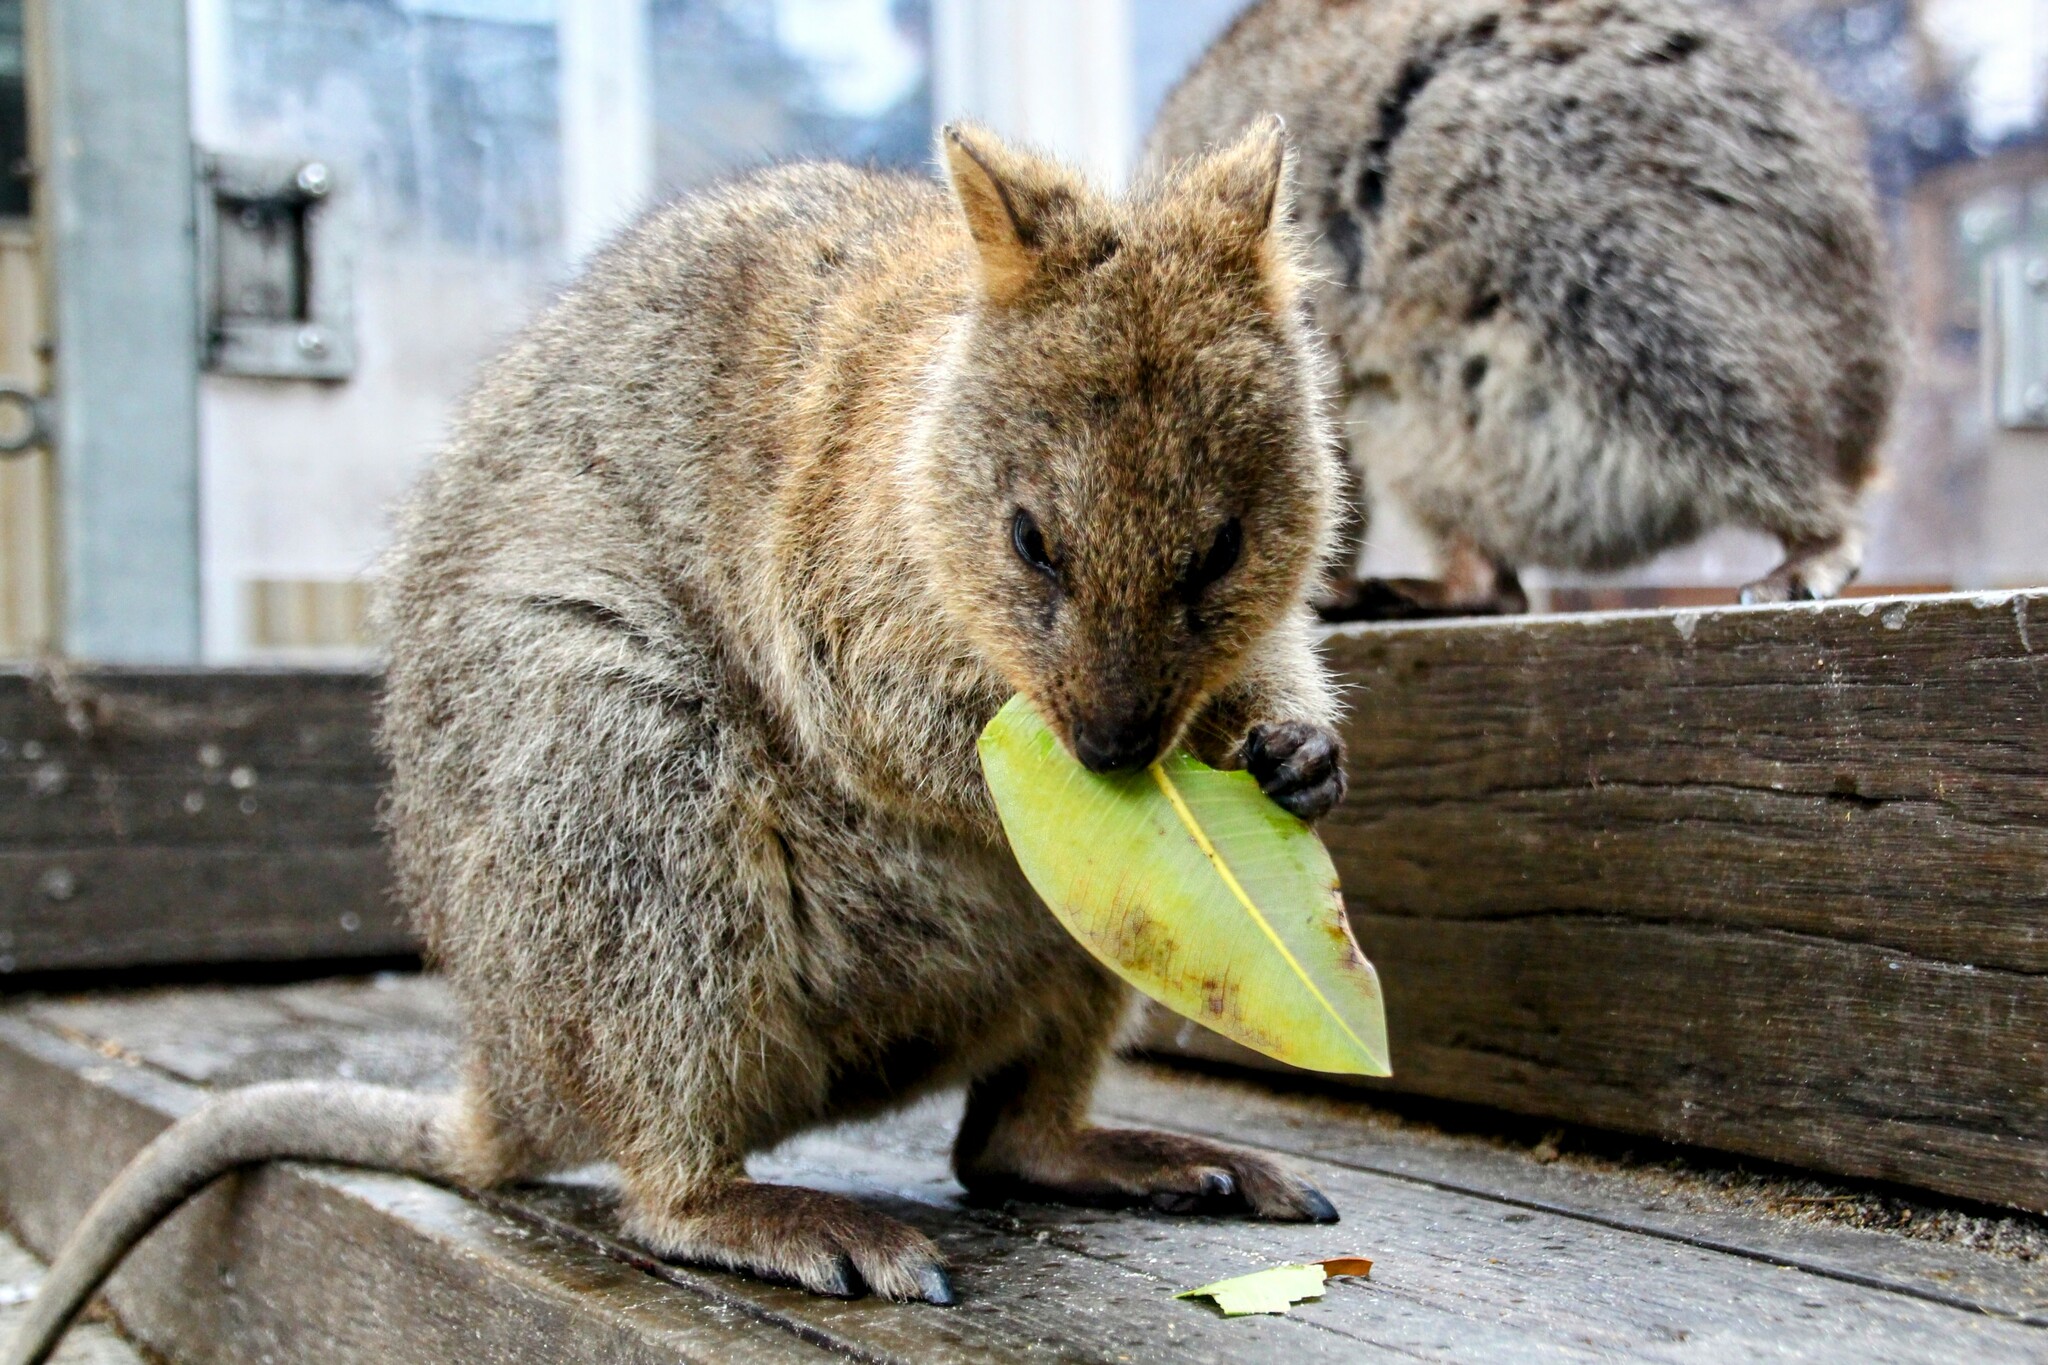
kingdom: Animalia
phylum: Chordata
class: Mammalia
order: Diprotodontia
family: Macropodidae
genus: Setonix
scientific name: Setonix brachyurus
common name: Quokka
